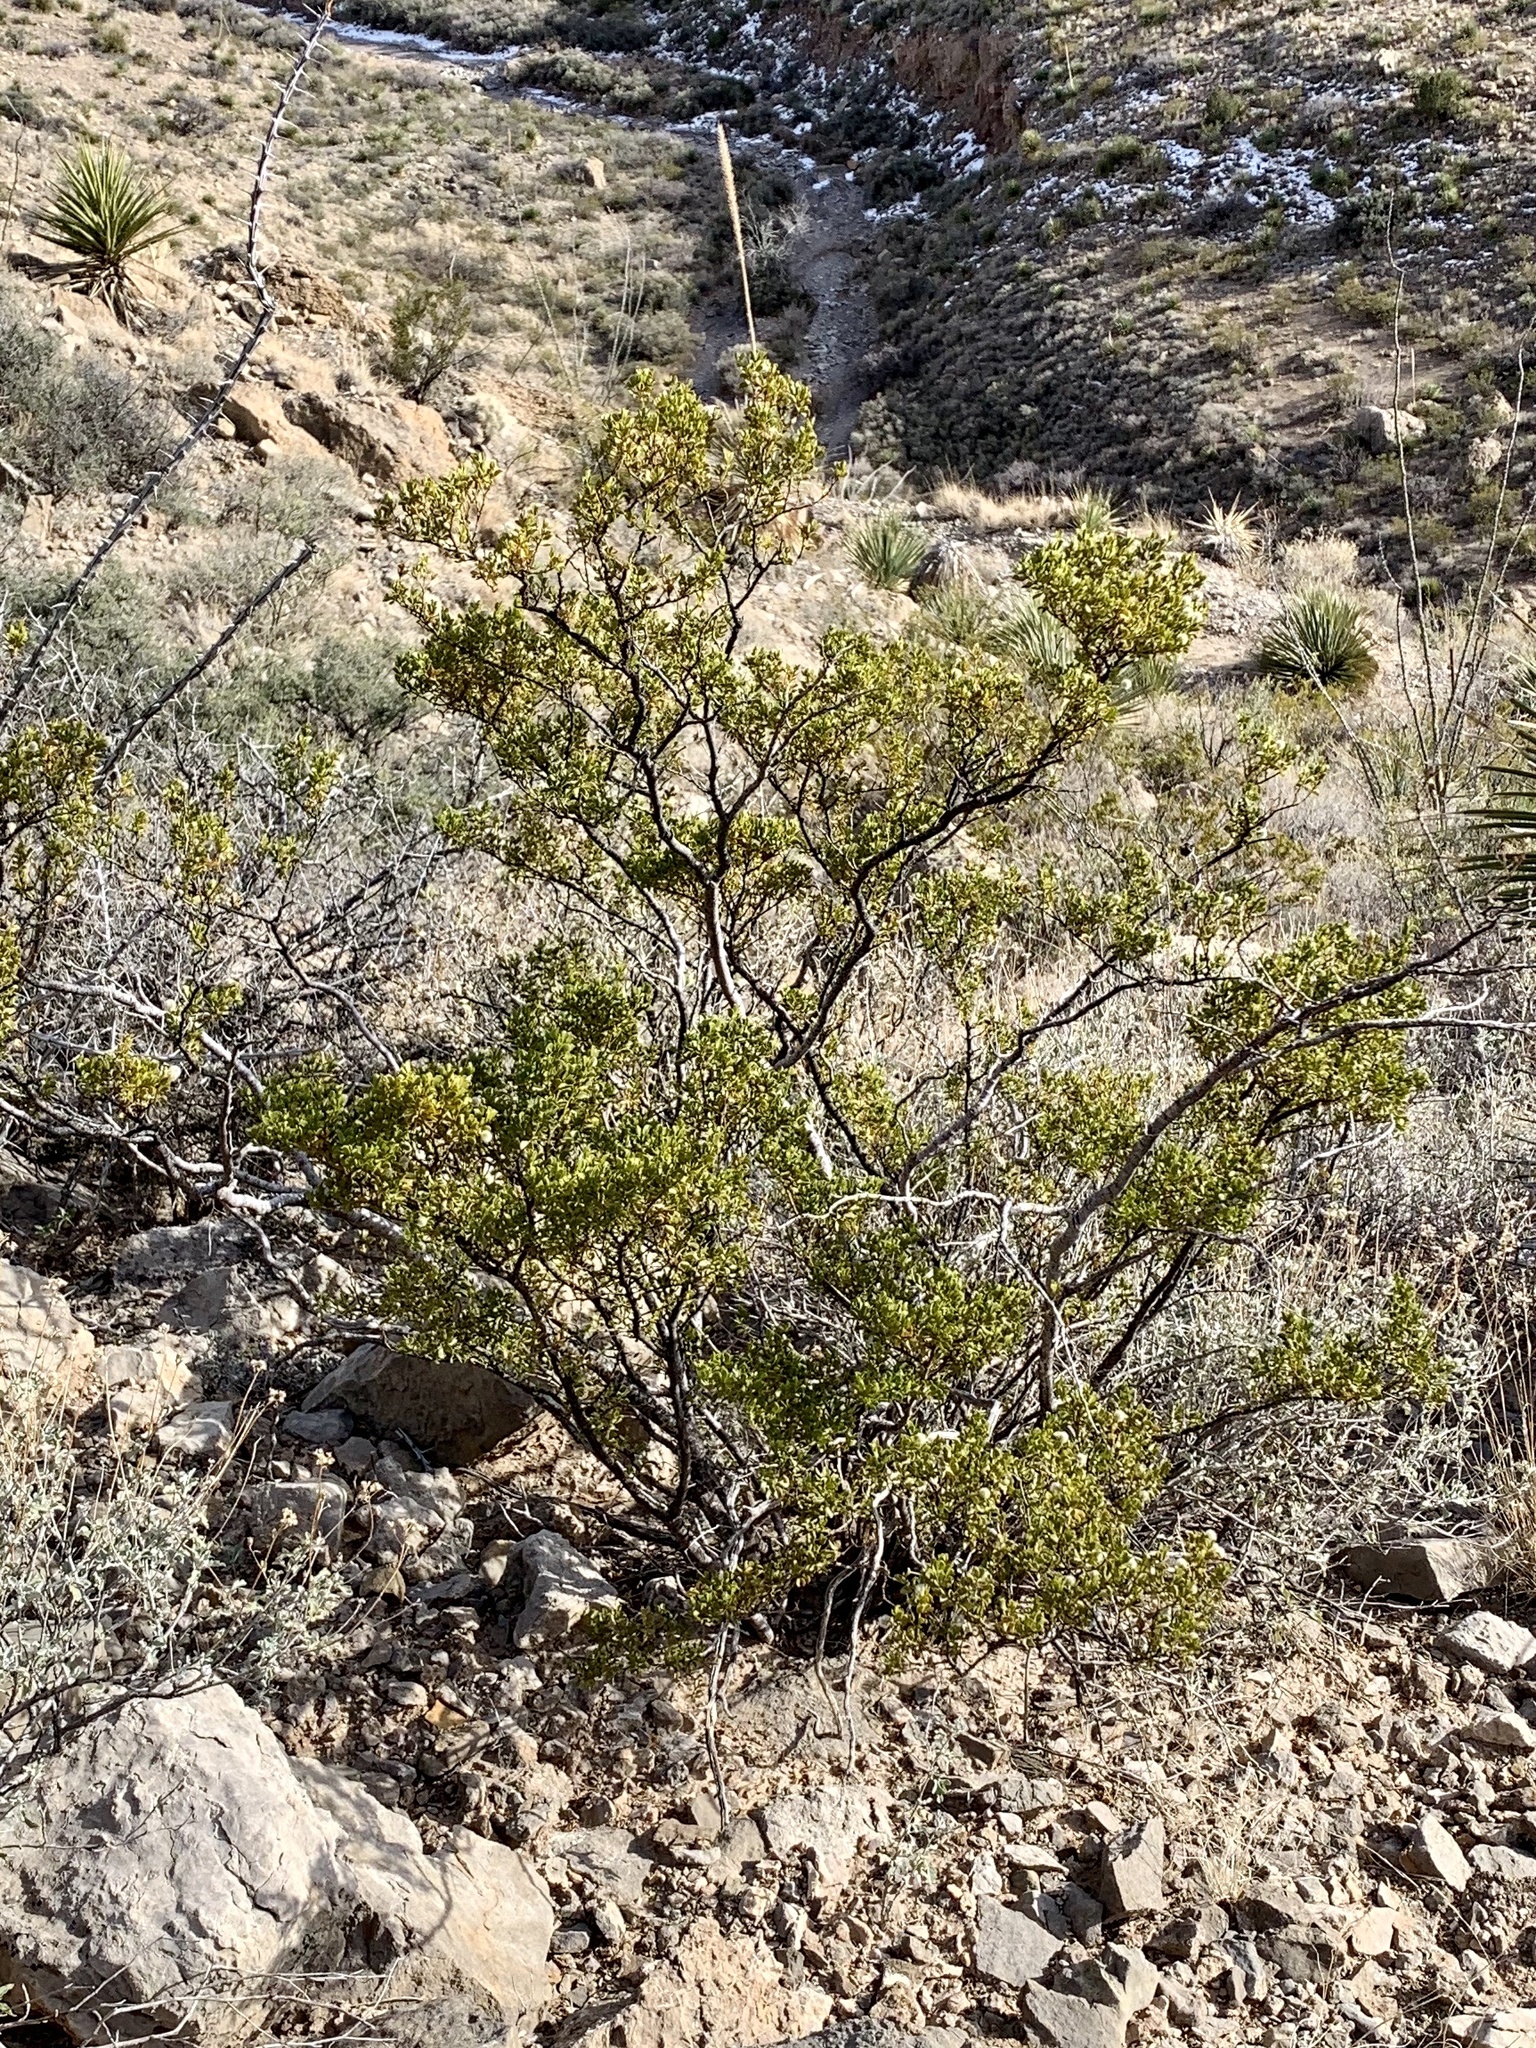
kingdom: Plantae
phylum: Tracheophyta
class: Magnoliopsida
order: Zygophyllales
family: Zygophyllaceae
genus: Larrea
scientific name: Larrea tridentata
